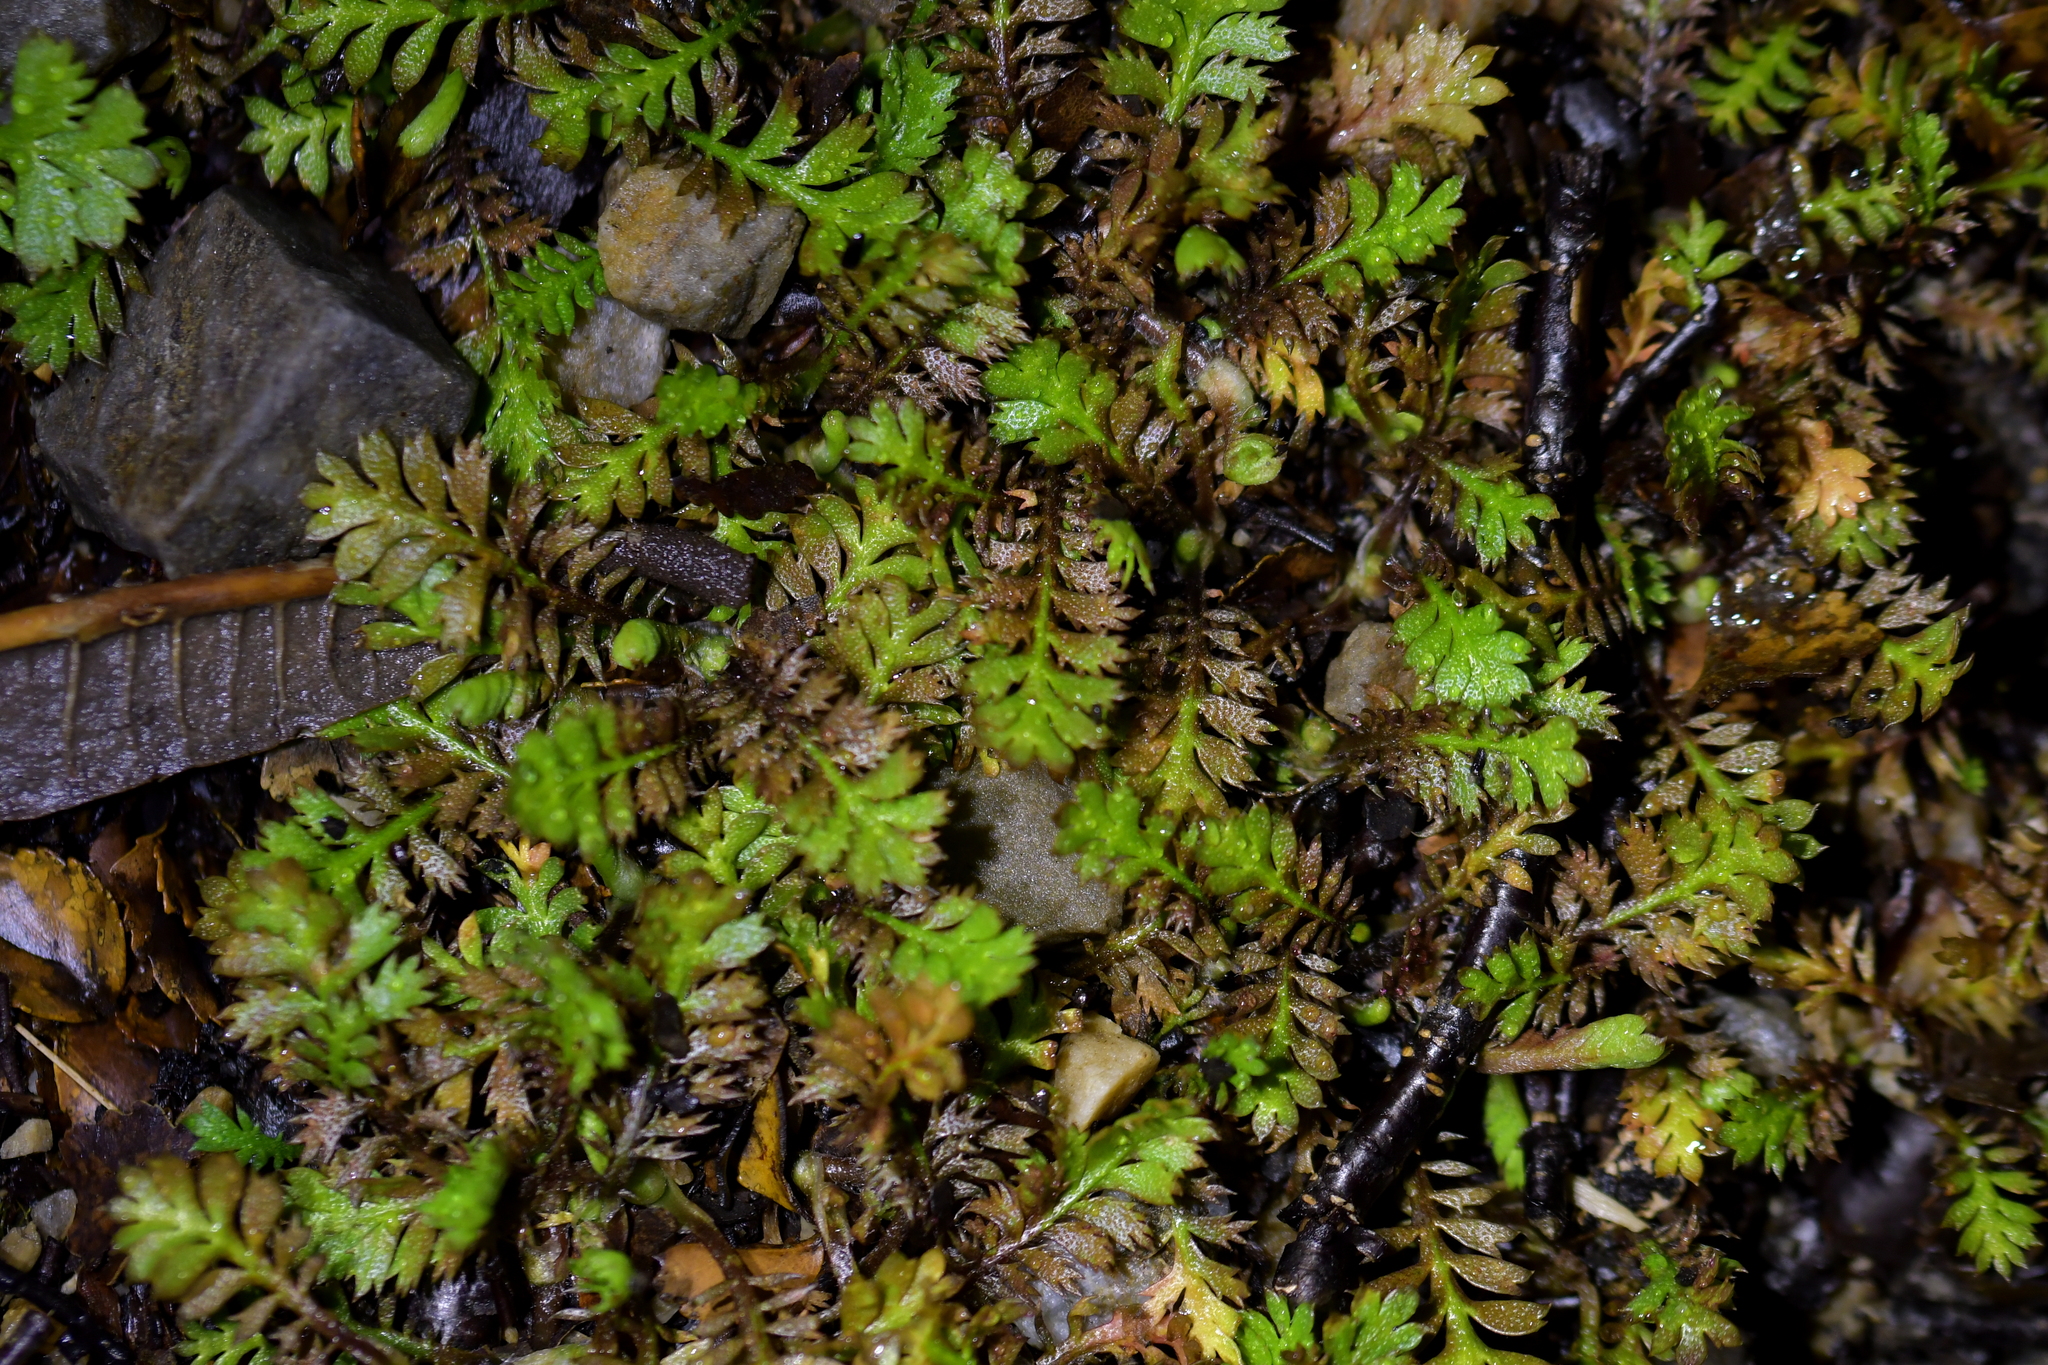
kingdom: Plantae
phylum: Tracheophyta
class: Magnoliopsida
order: Asterales
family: Asteraceae
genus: Leptinella
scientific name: Leptinella squalida
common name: New zealand brass-buttons
